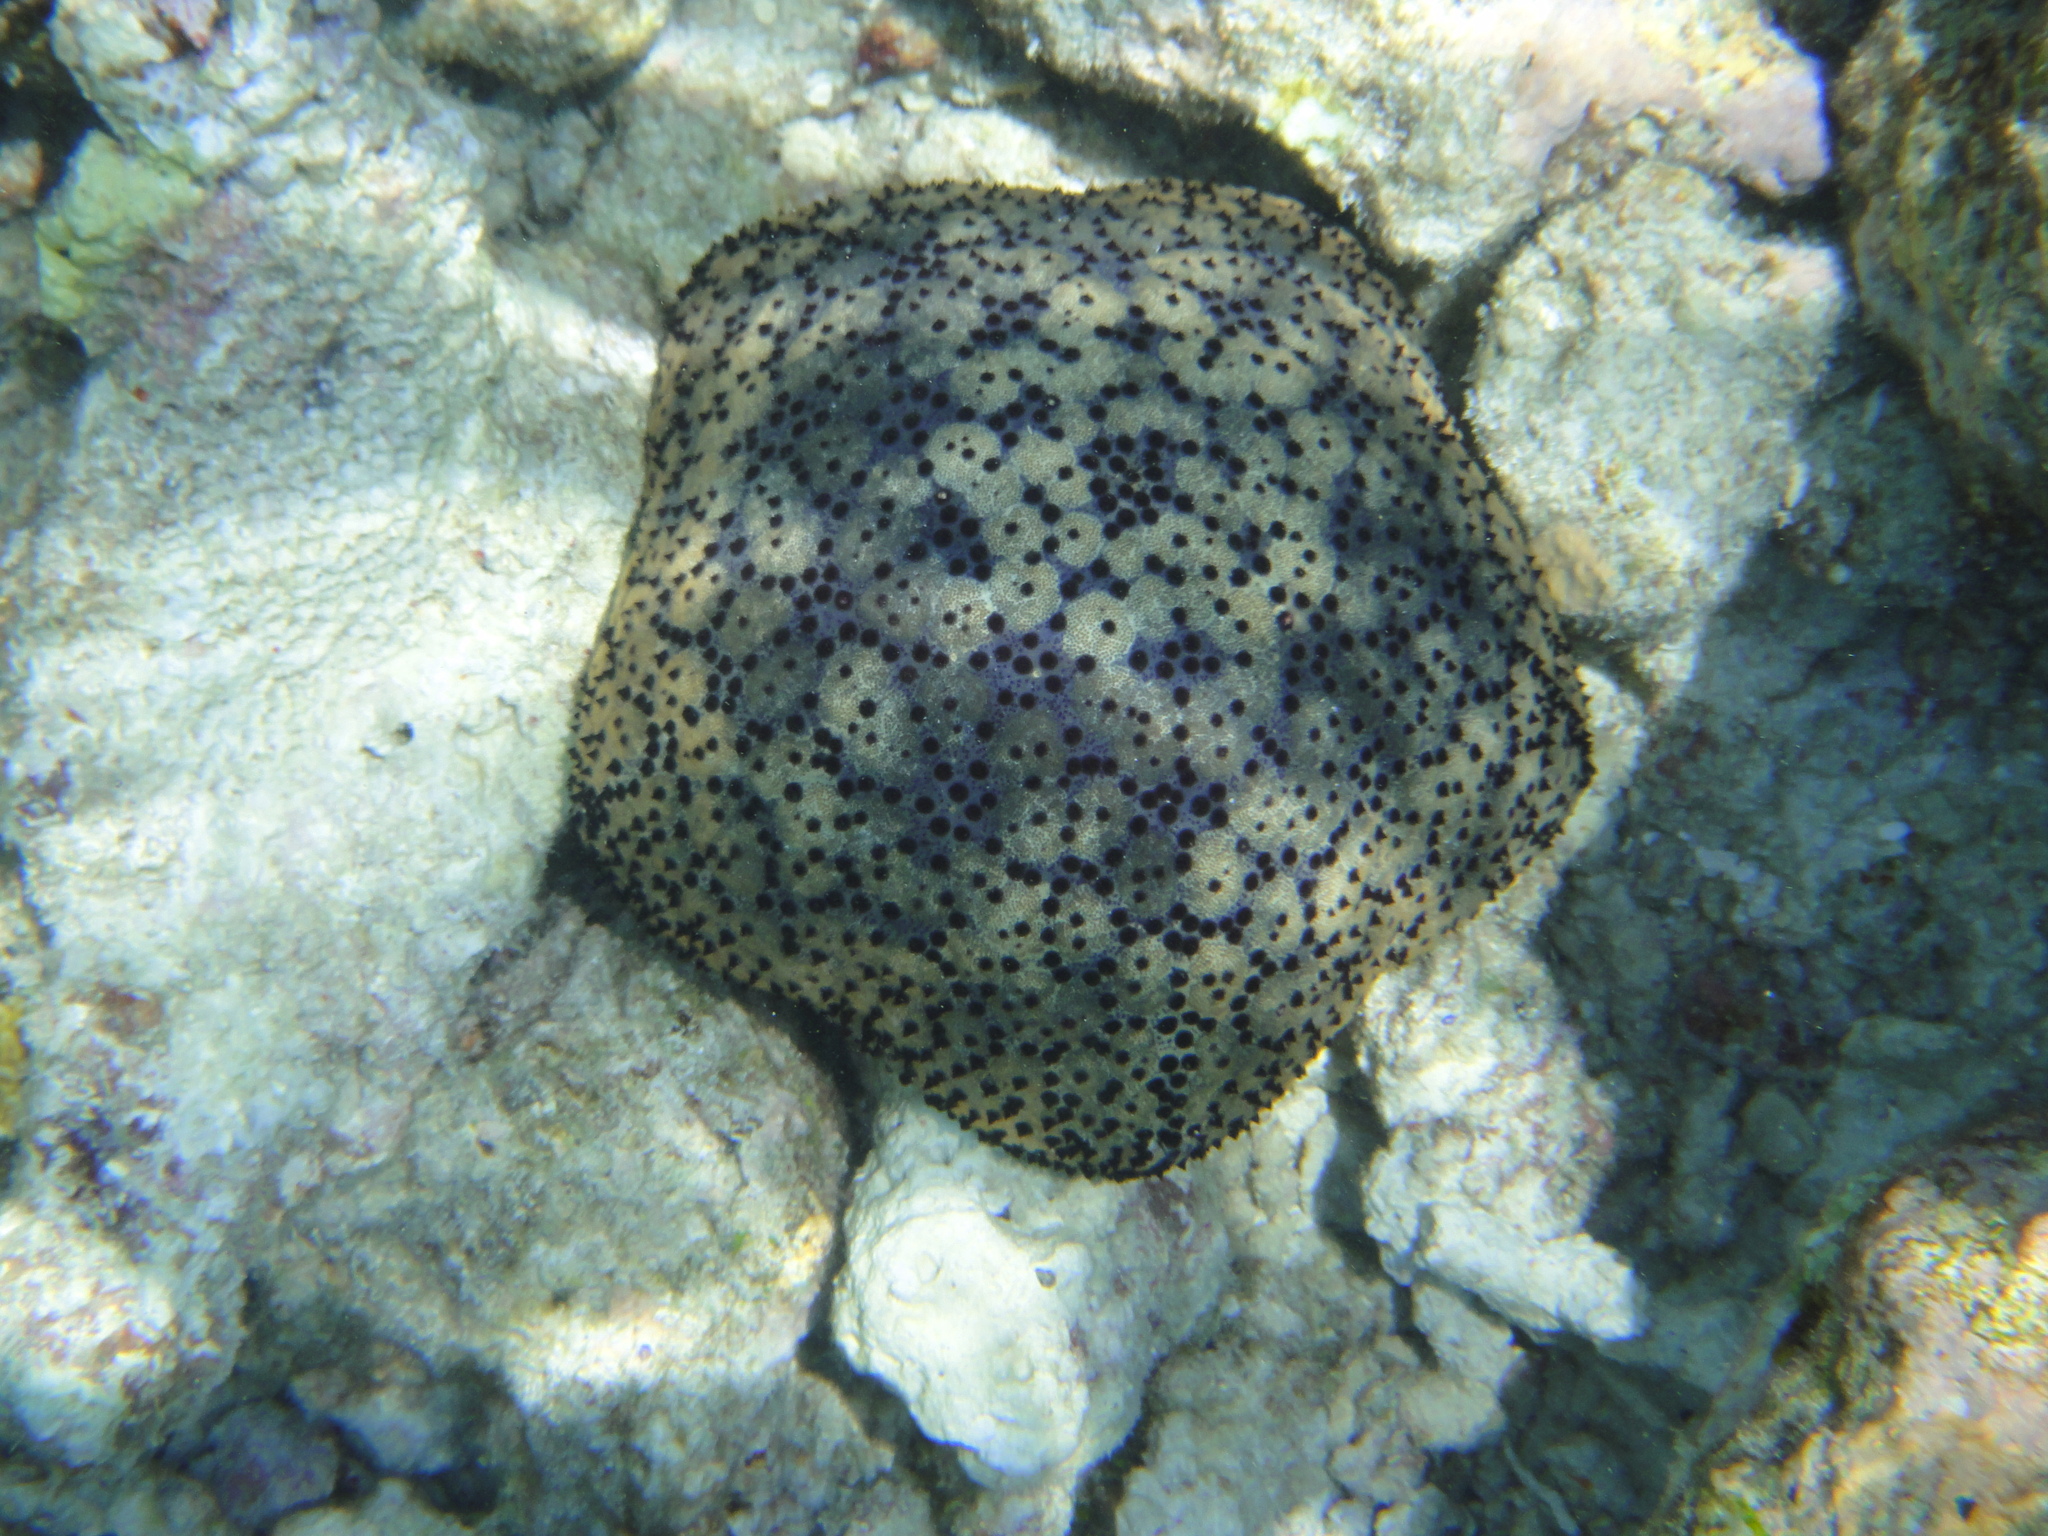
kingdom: Animalia
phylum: Echinodermata
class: Asteroidea
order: Valvatida
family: Oreasteridae
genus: Culcita
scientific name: Culcita schmideliana
